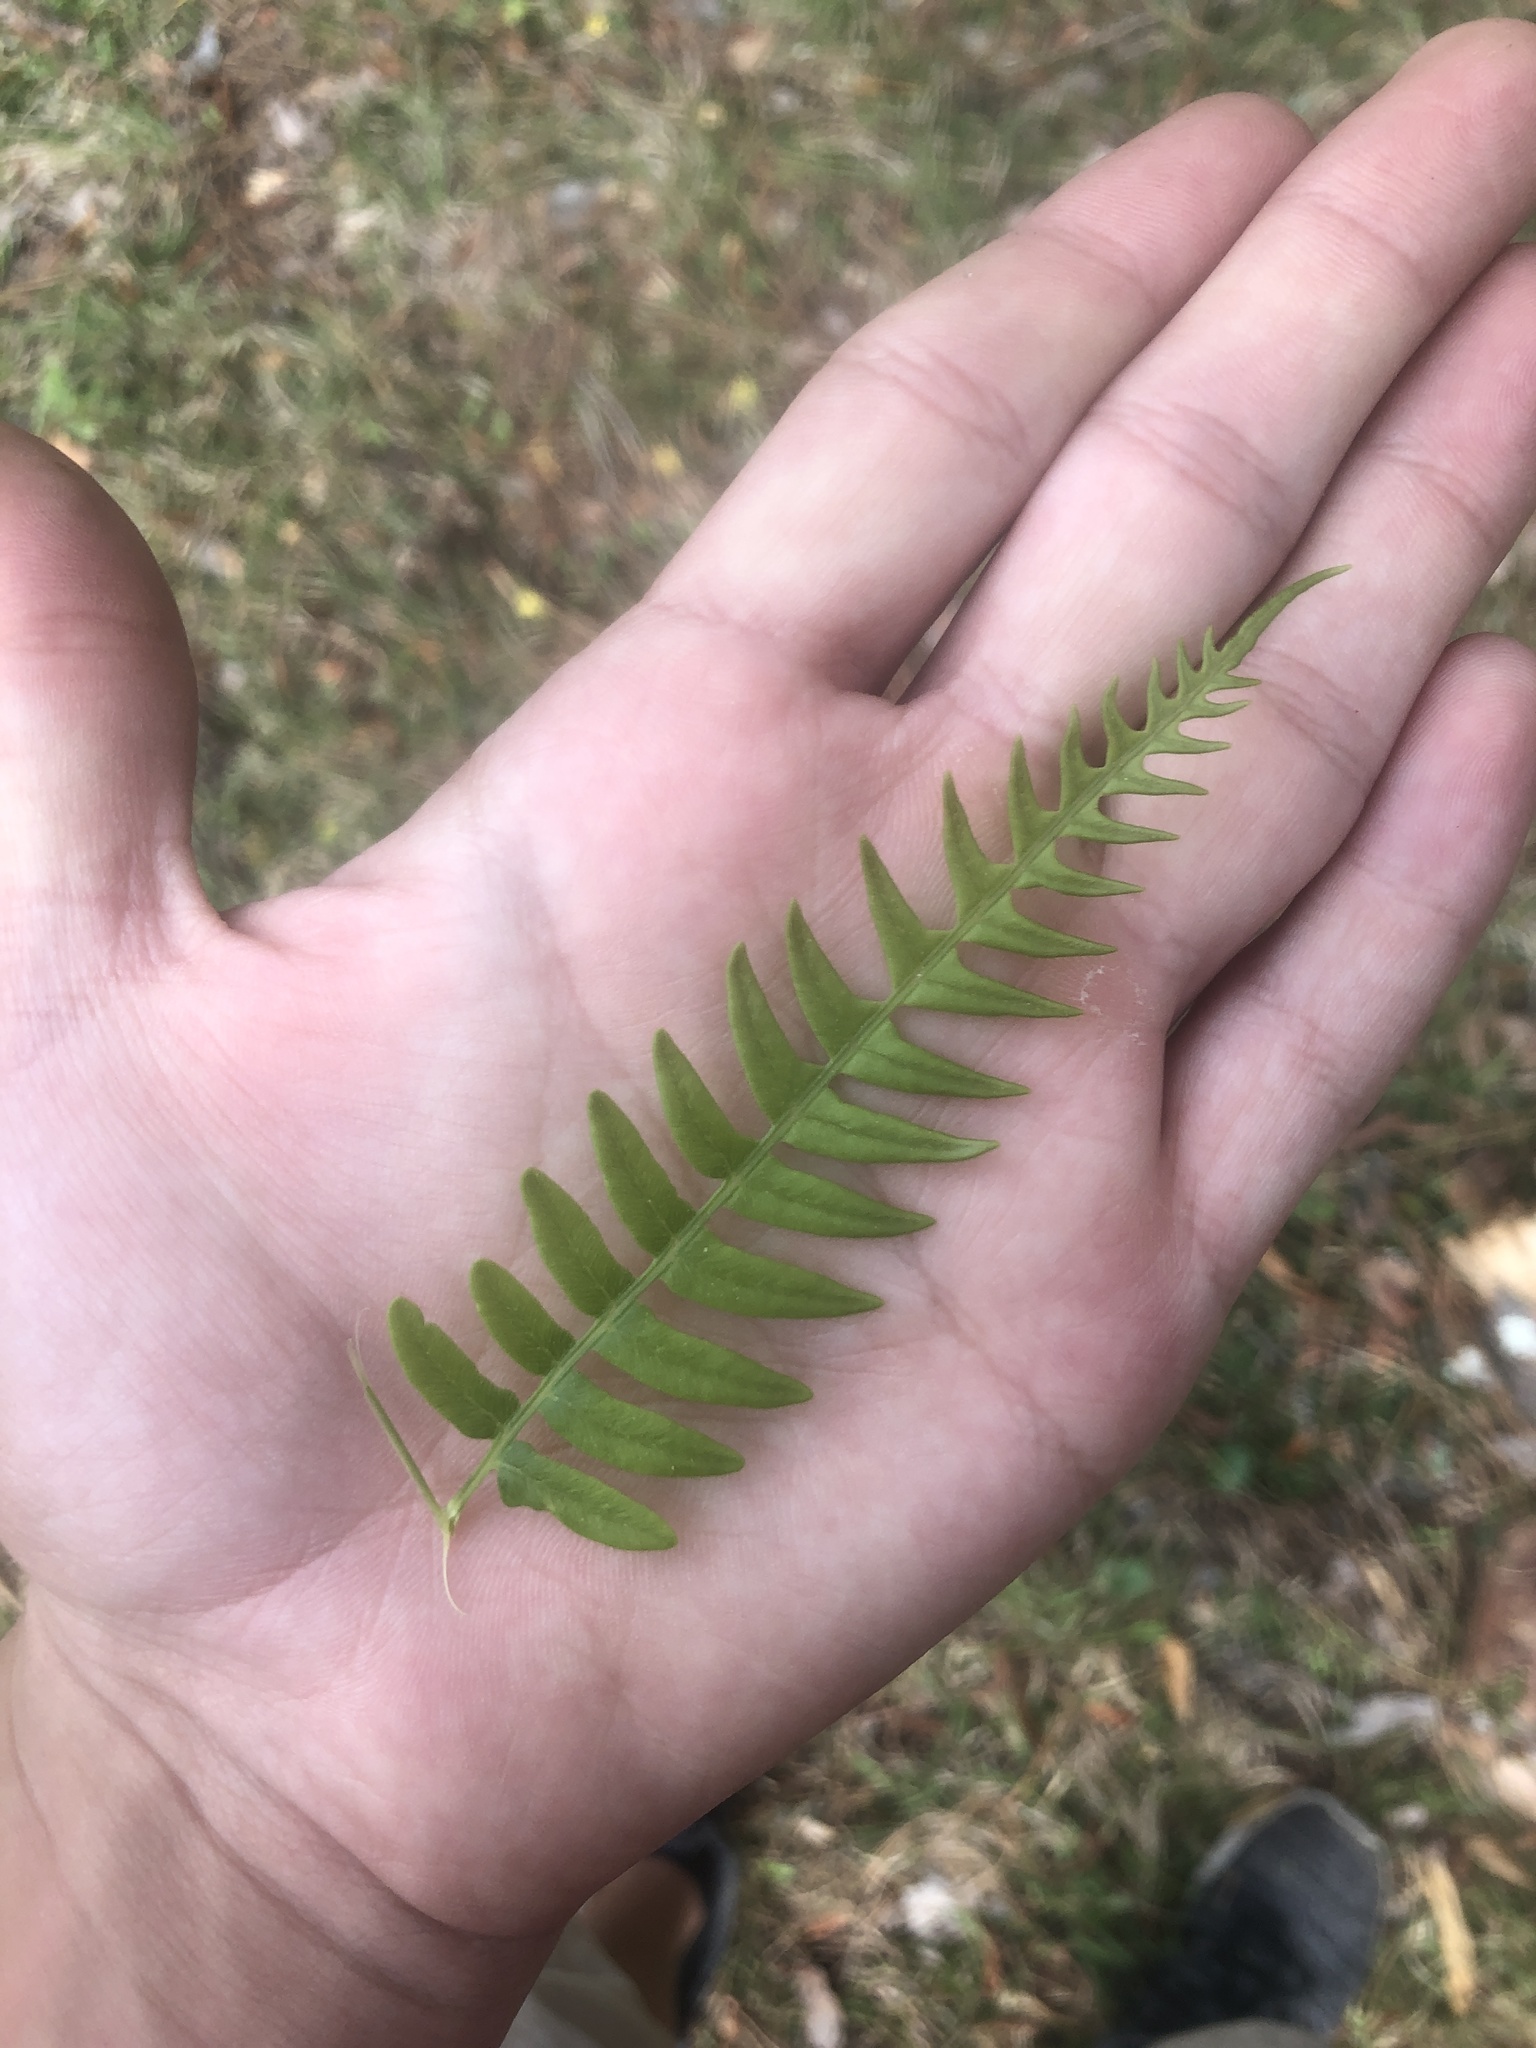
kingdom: Plantae
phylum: Tracheophyta
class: Polypodiopsida
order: Polypodiales
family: Dennstaedtiaceae
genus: Pteridium
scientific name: Pteridium
